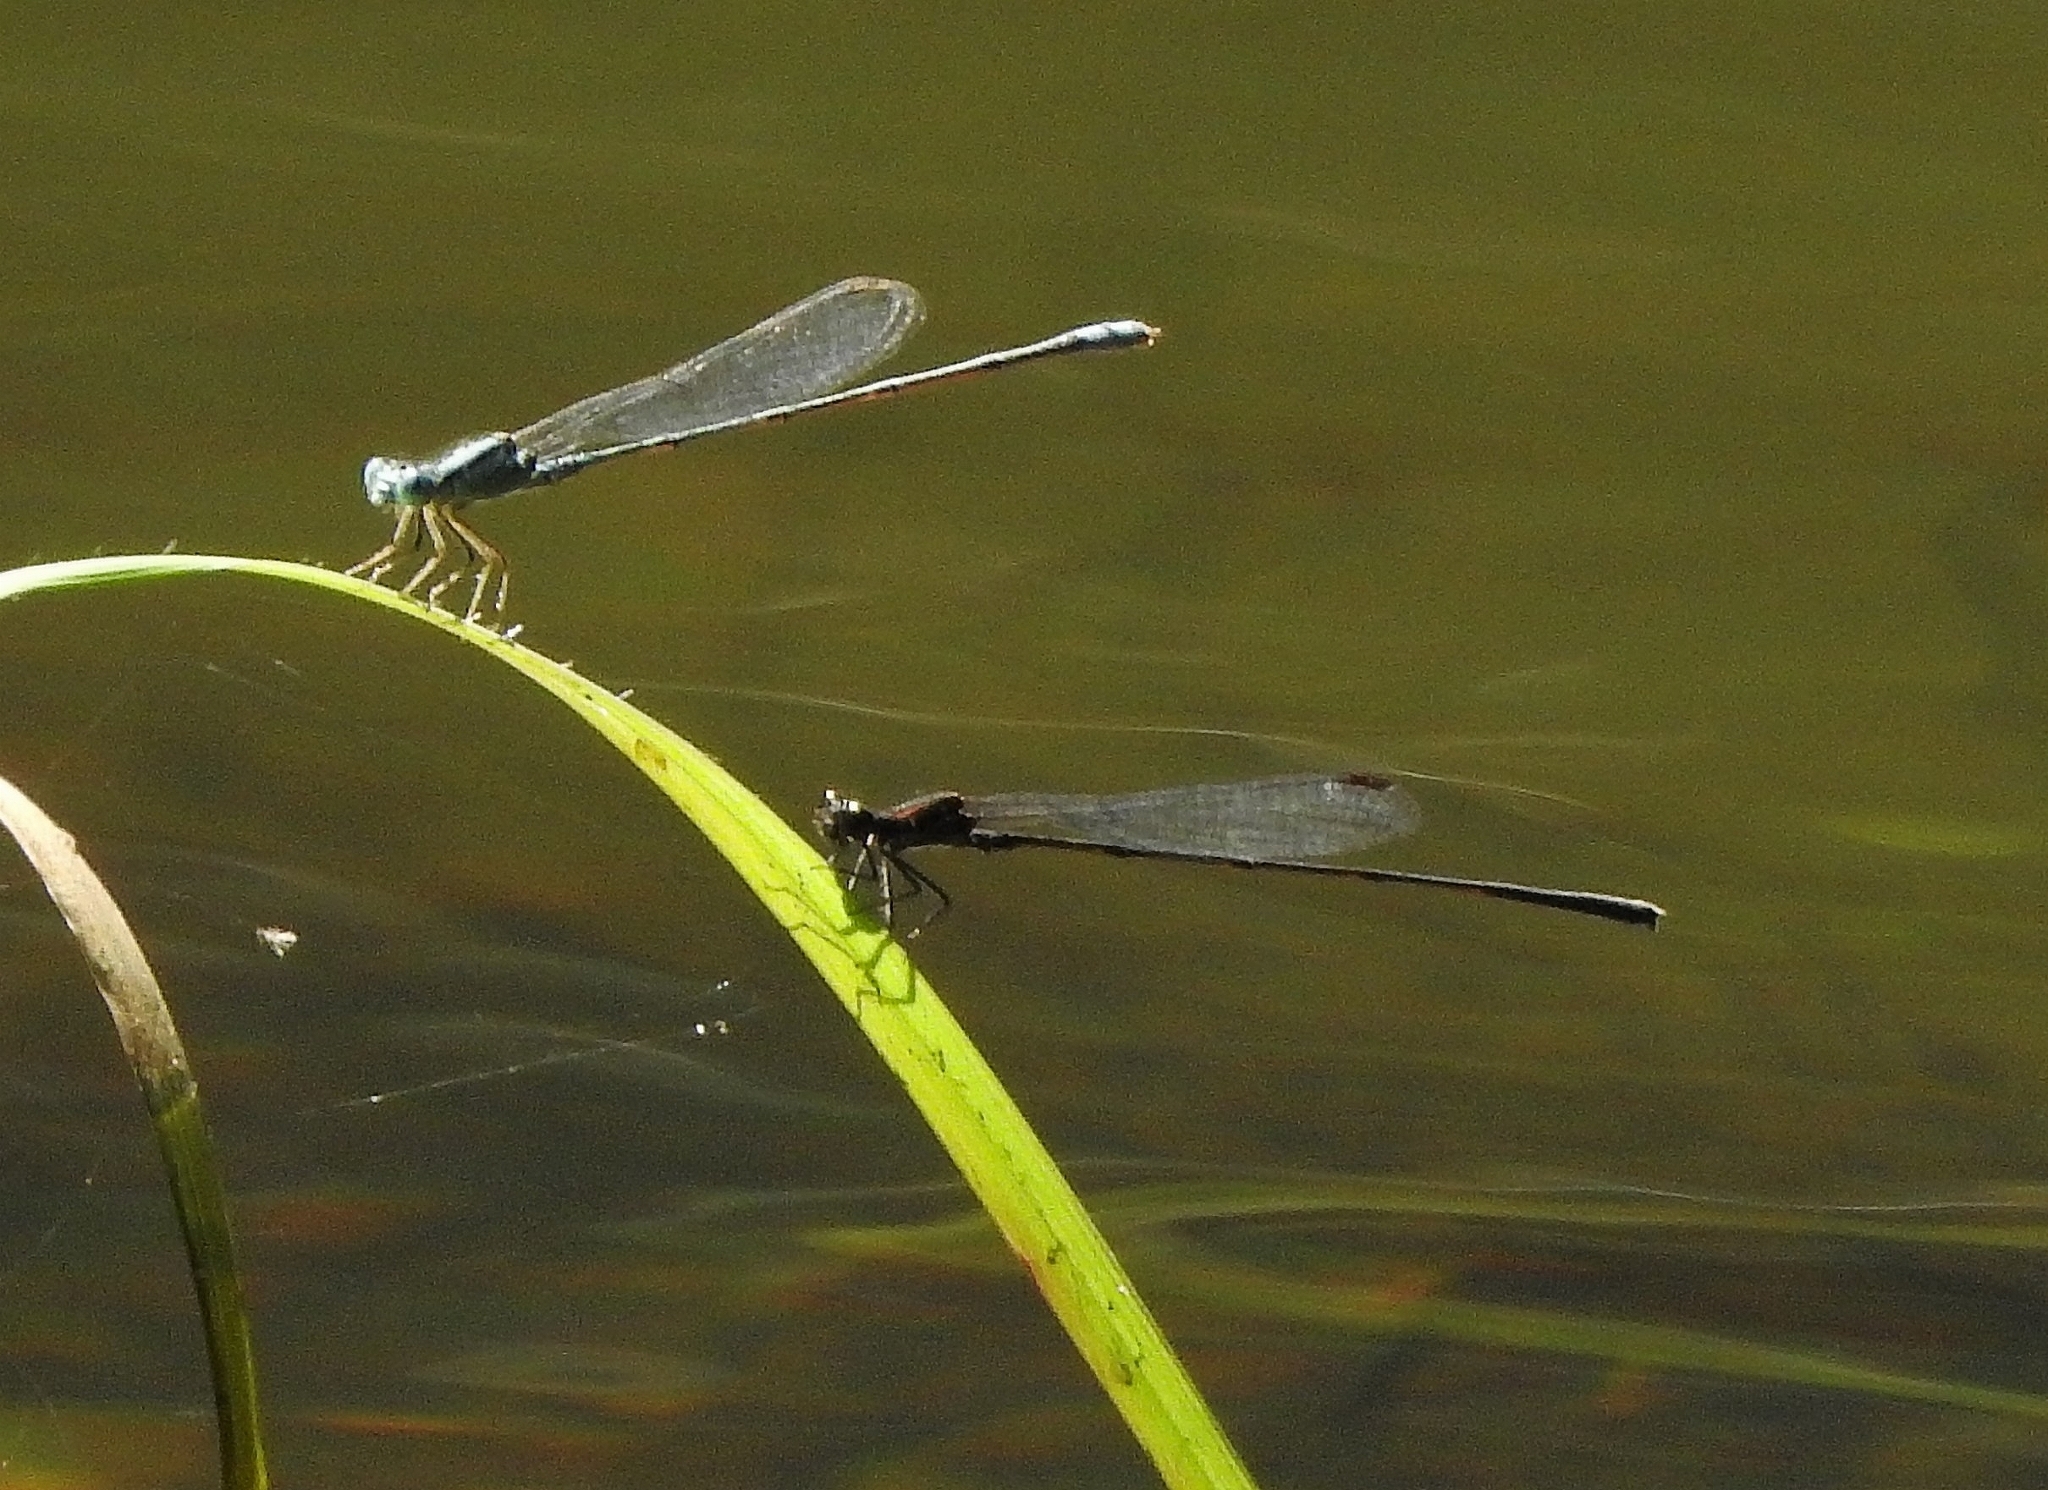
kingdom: Animalia
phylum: Arthropoda
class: Insecta
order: Odonata
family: Coenagrionidae
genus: Pseudagrion
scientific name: Pseudagrion microcephalum
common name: Blue riverdamsel
